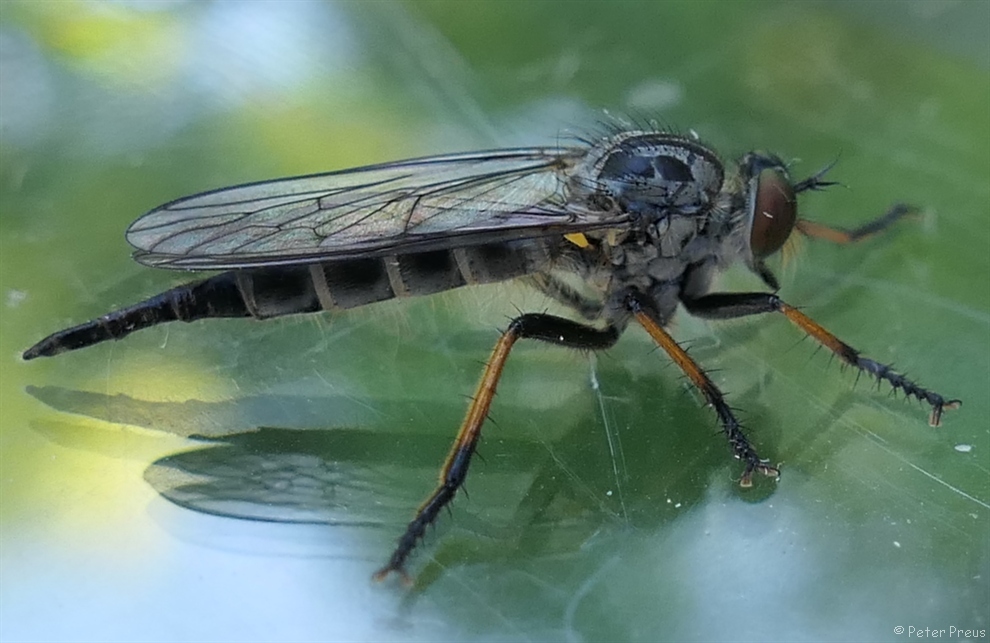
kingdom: Animalia
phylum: Arthropoda
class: Insecta
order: Diptera
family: Asilidae
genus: Neoitamus
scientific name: Neoitamus
